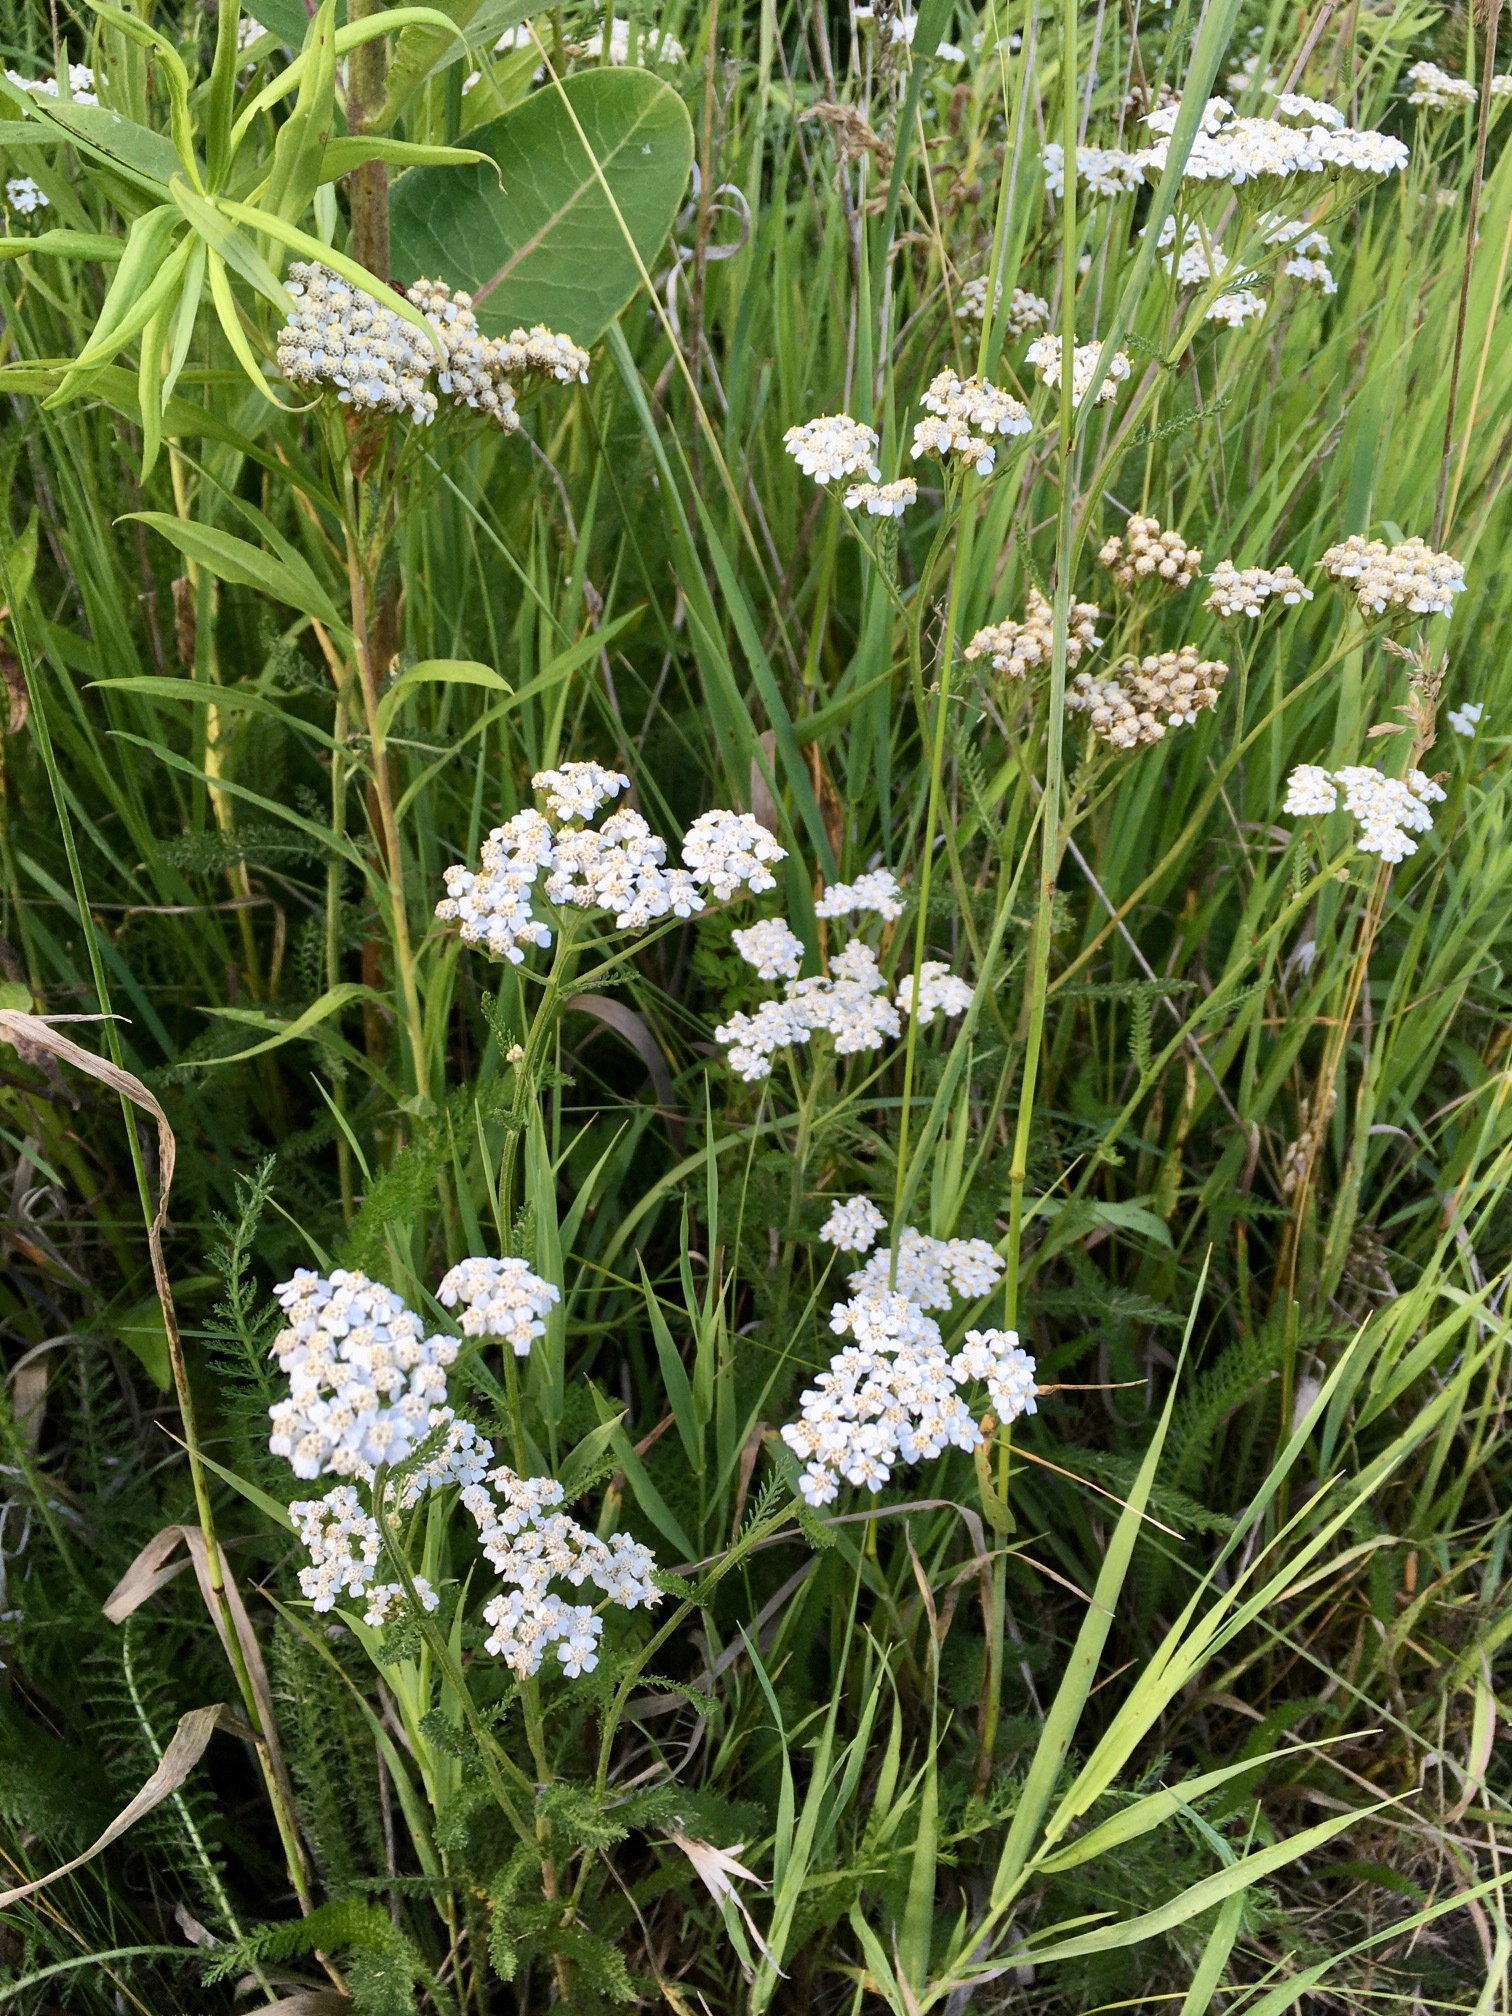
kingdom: Plantae
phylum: Tracheophyta
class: Magnoliopsida
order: Asterales
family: Asteraceae
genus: Achillea
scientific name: Achillea millefolium
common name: Yarrow
